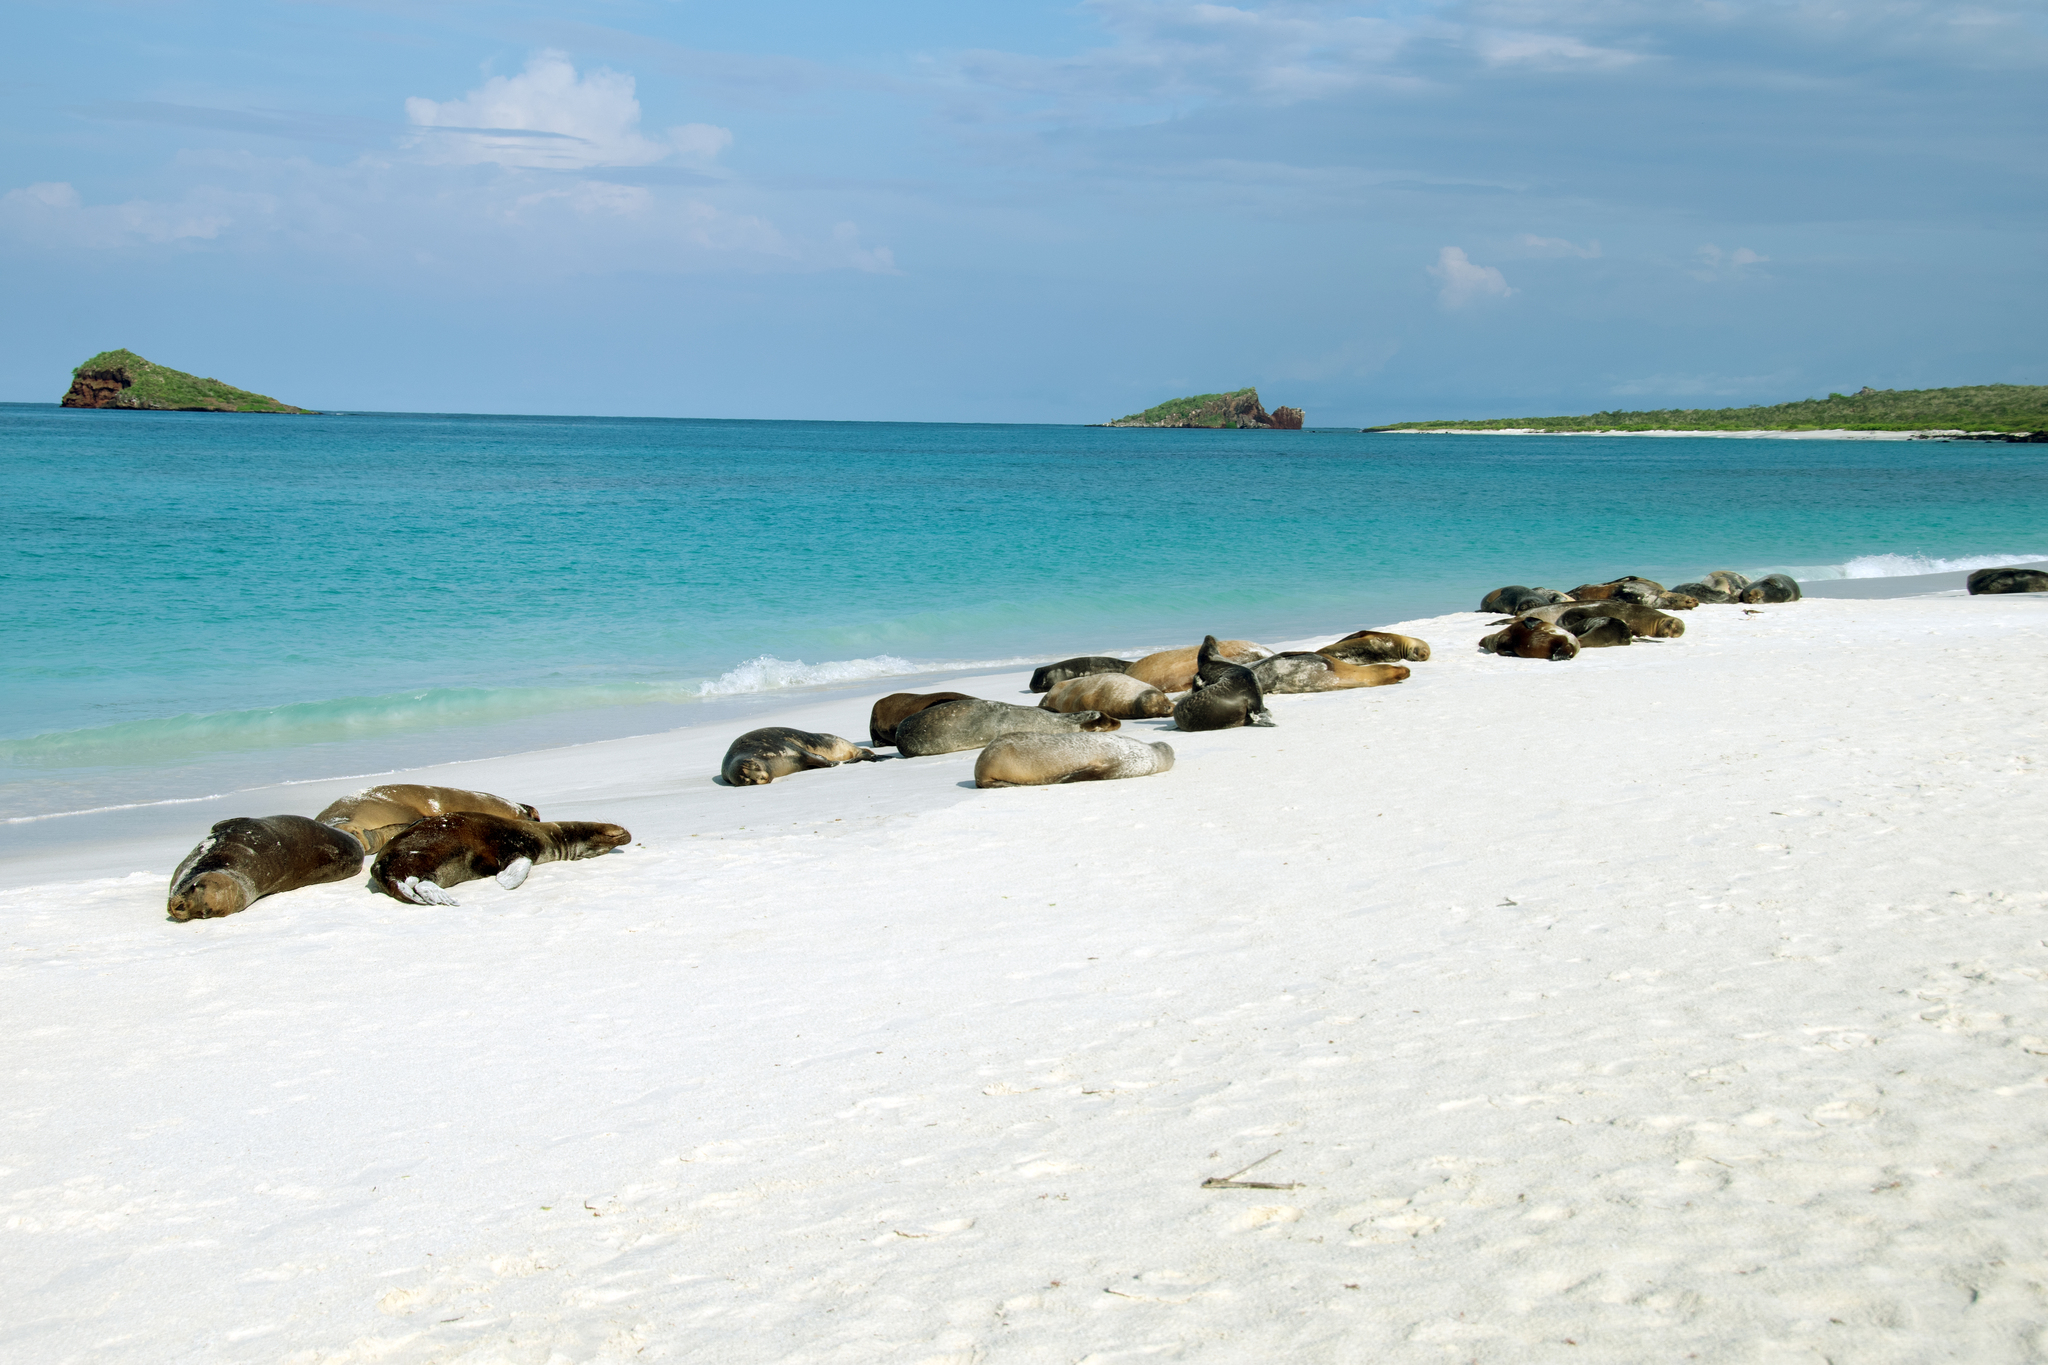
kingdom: Animalia
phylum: Chordata
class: Mammalia
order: Carnivora
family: Otariidae
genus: Zalophus
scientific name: Zalophus wollebaeki
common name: Galapagos sea lion
